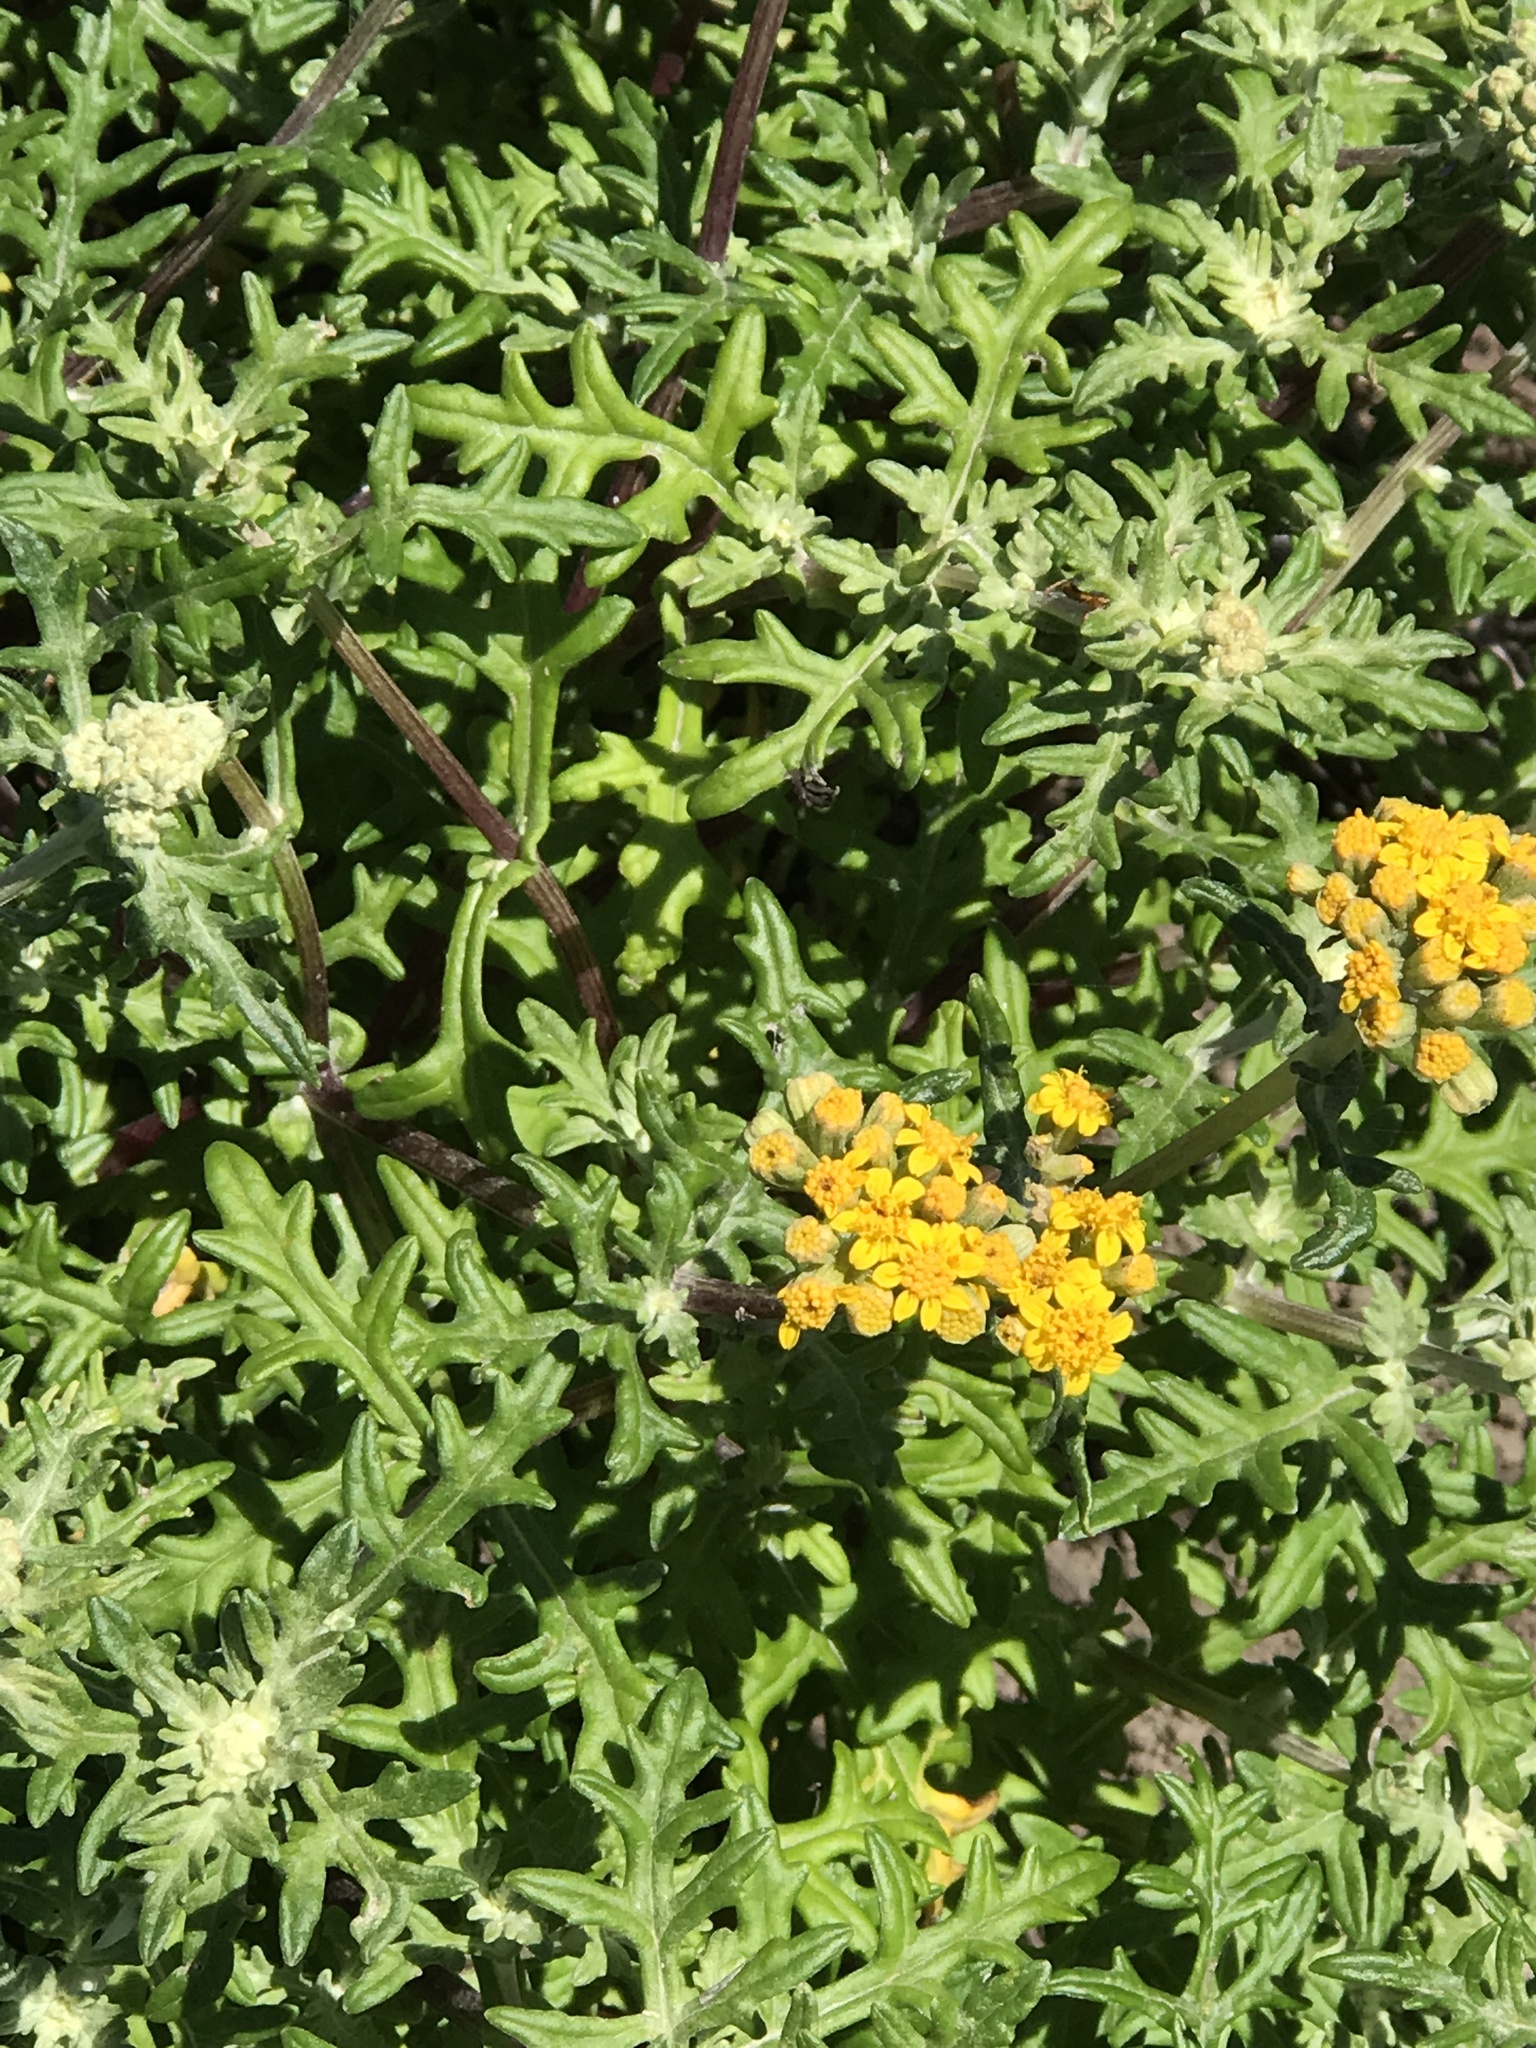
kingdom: Plantae
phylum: Tracheophyta
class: Magnoliopsida
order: Asterales
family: Asteraceae
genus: Eriophyllum
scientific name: Eriophyllum staechadifolium
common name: Lizardtail
